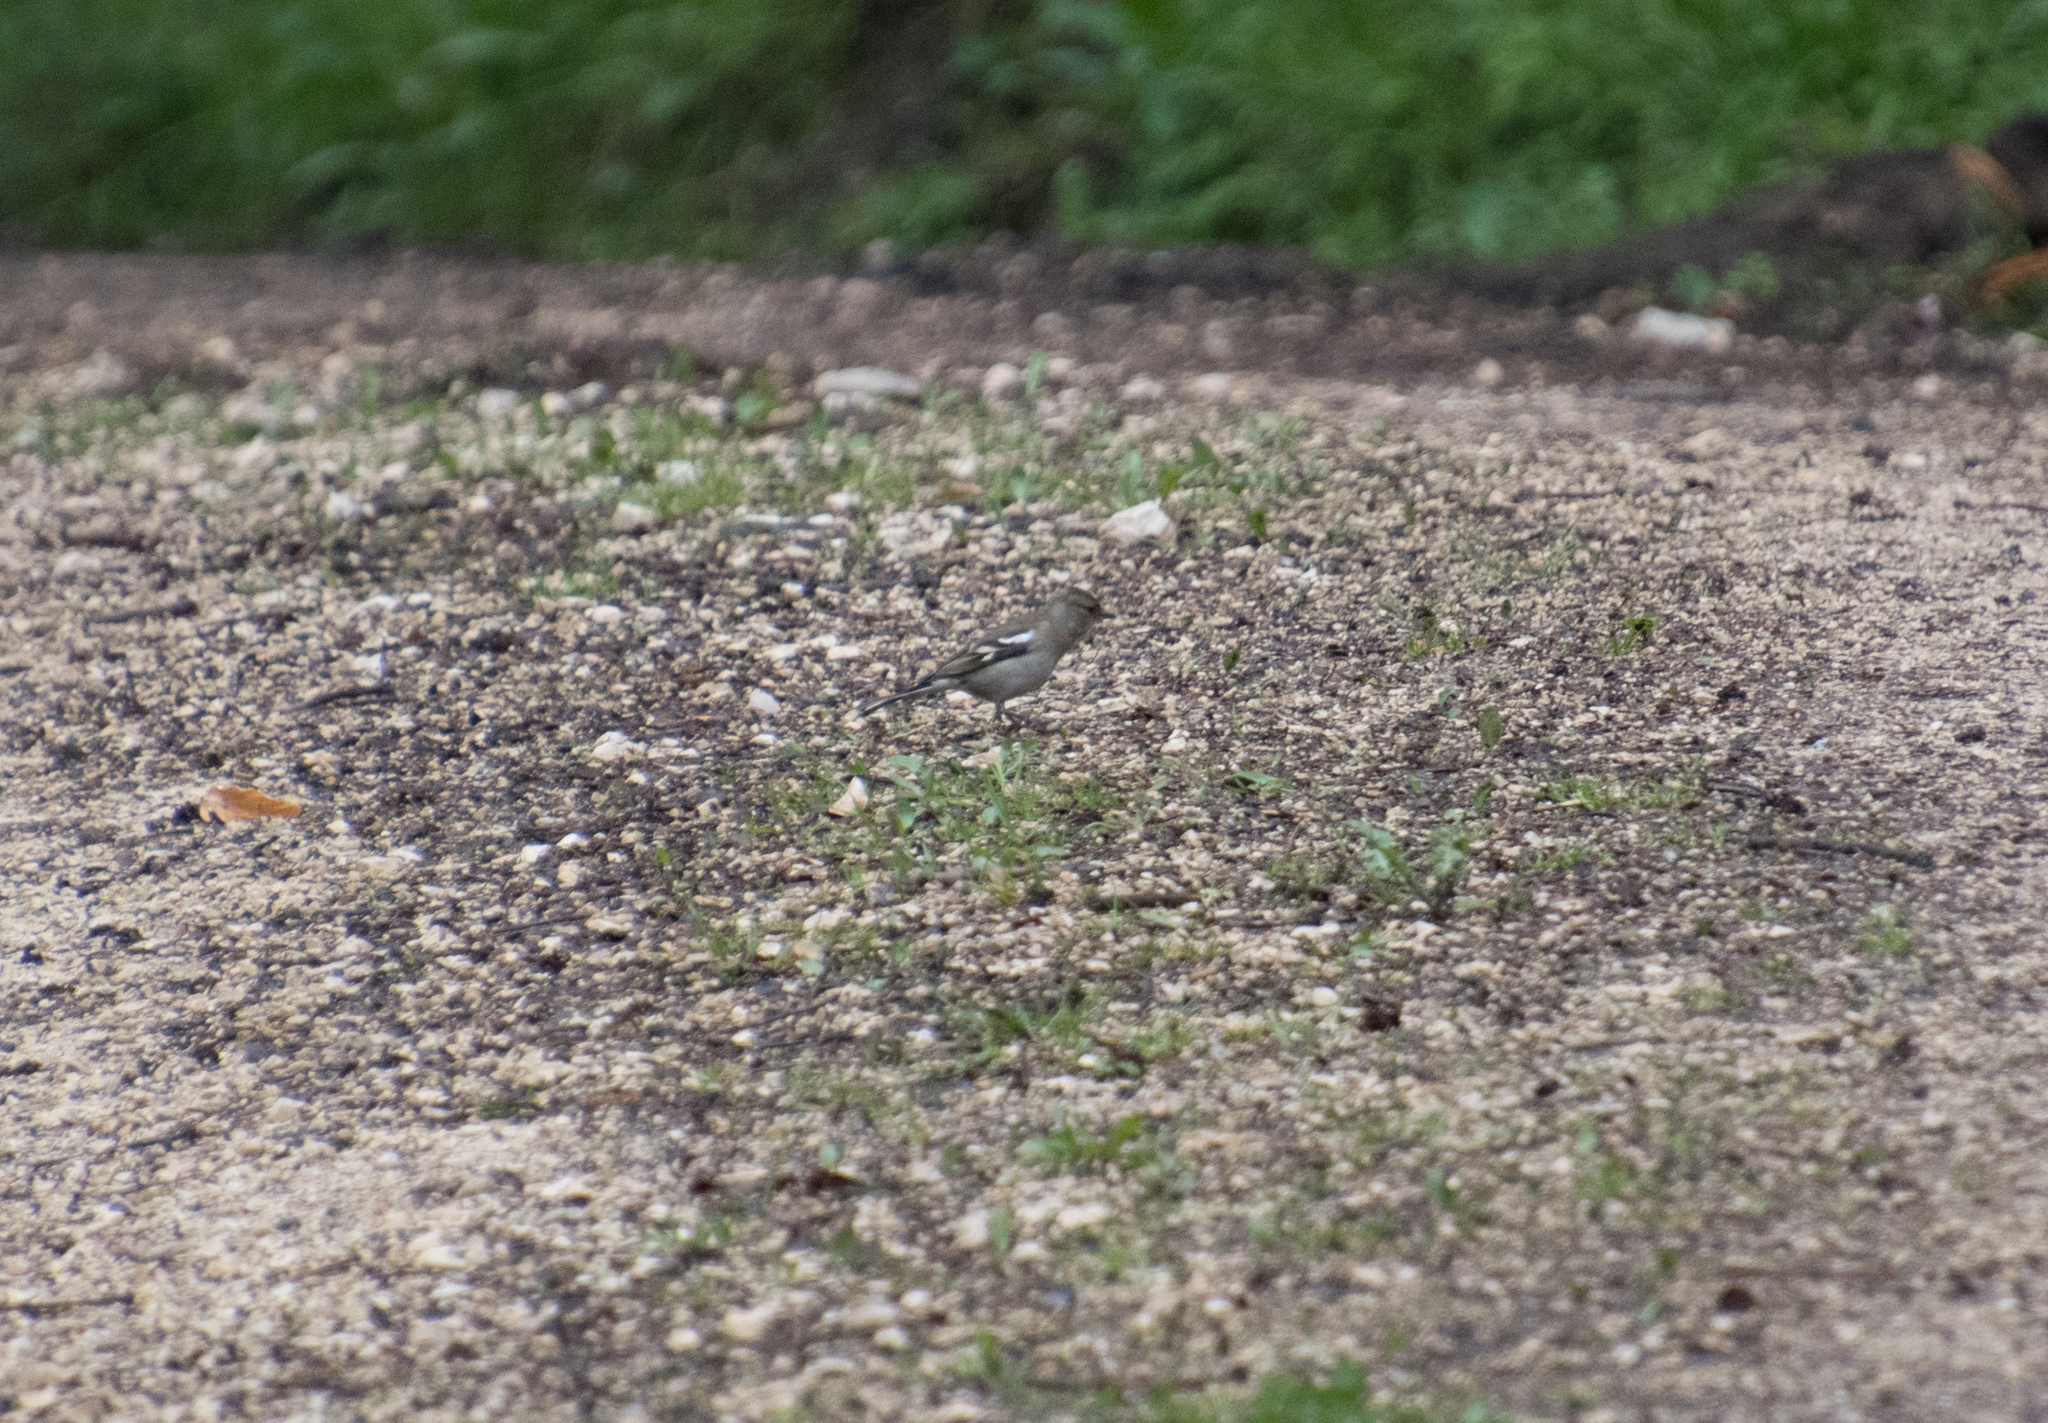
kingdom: Animalia
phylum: Chordata
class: Aves
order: Passeriformes
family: Fringillidae
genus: Fringilla
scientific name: Fringilla coelebs
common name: Common chaffinch
